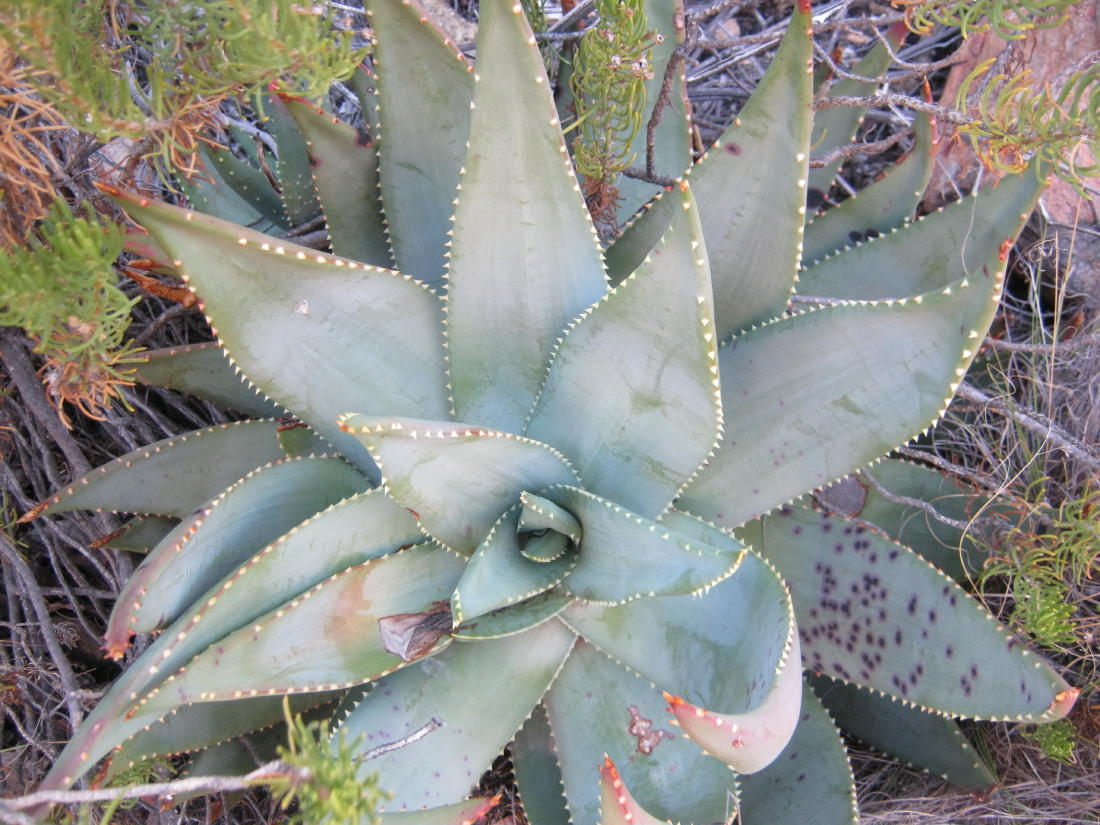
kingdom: Plantae
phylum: Tracheophyta
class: Liliopsida
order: Asparagales
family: Asphodelaceae
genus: Aloe
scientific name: Aloe perfoliata
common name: Mitra aloe
